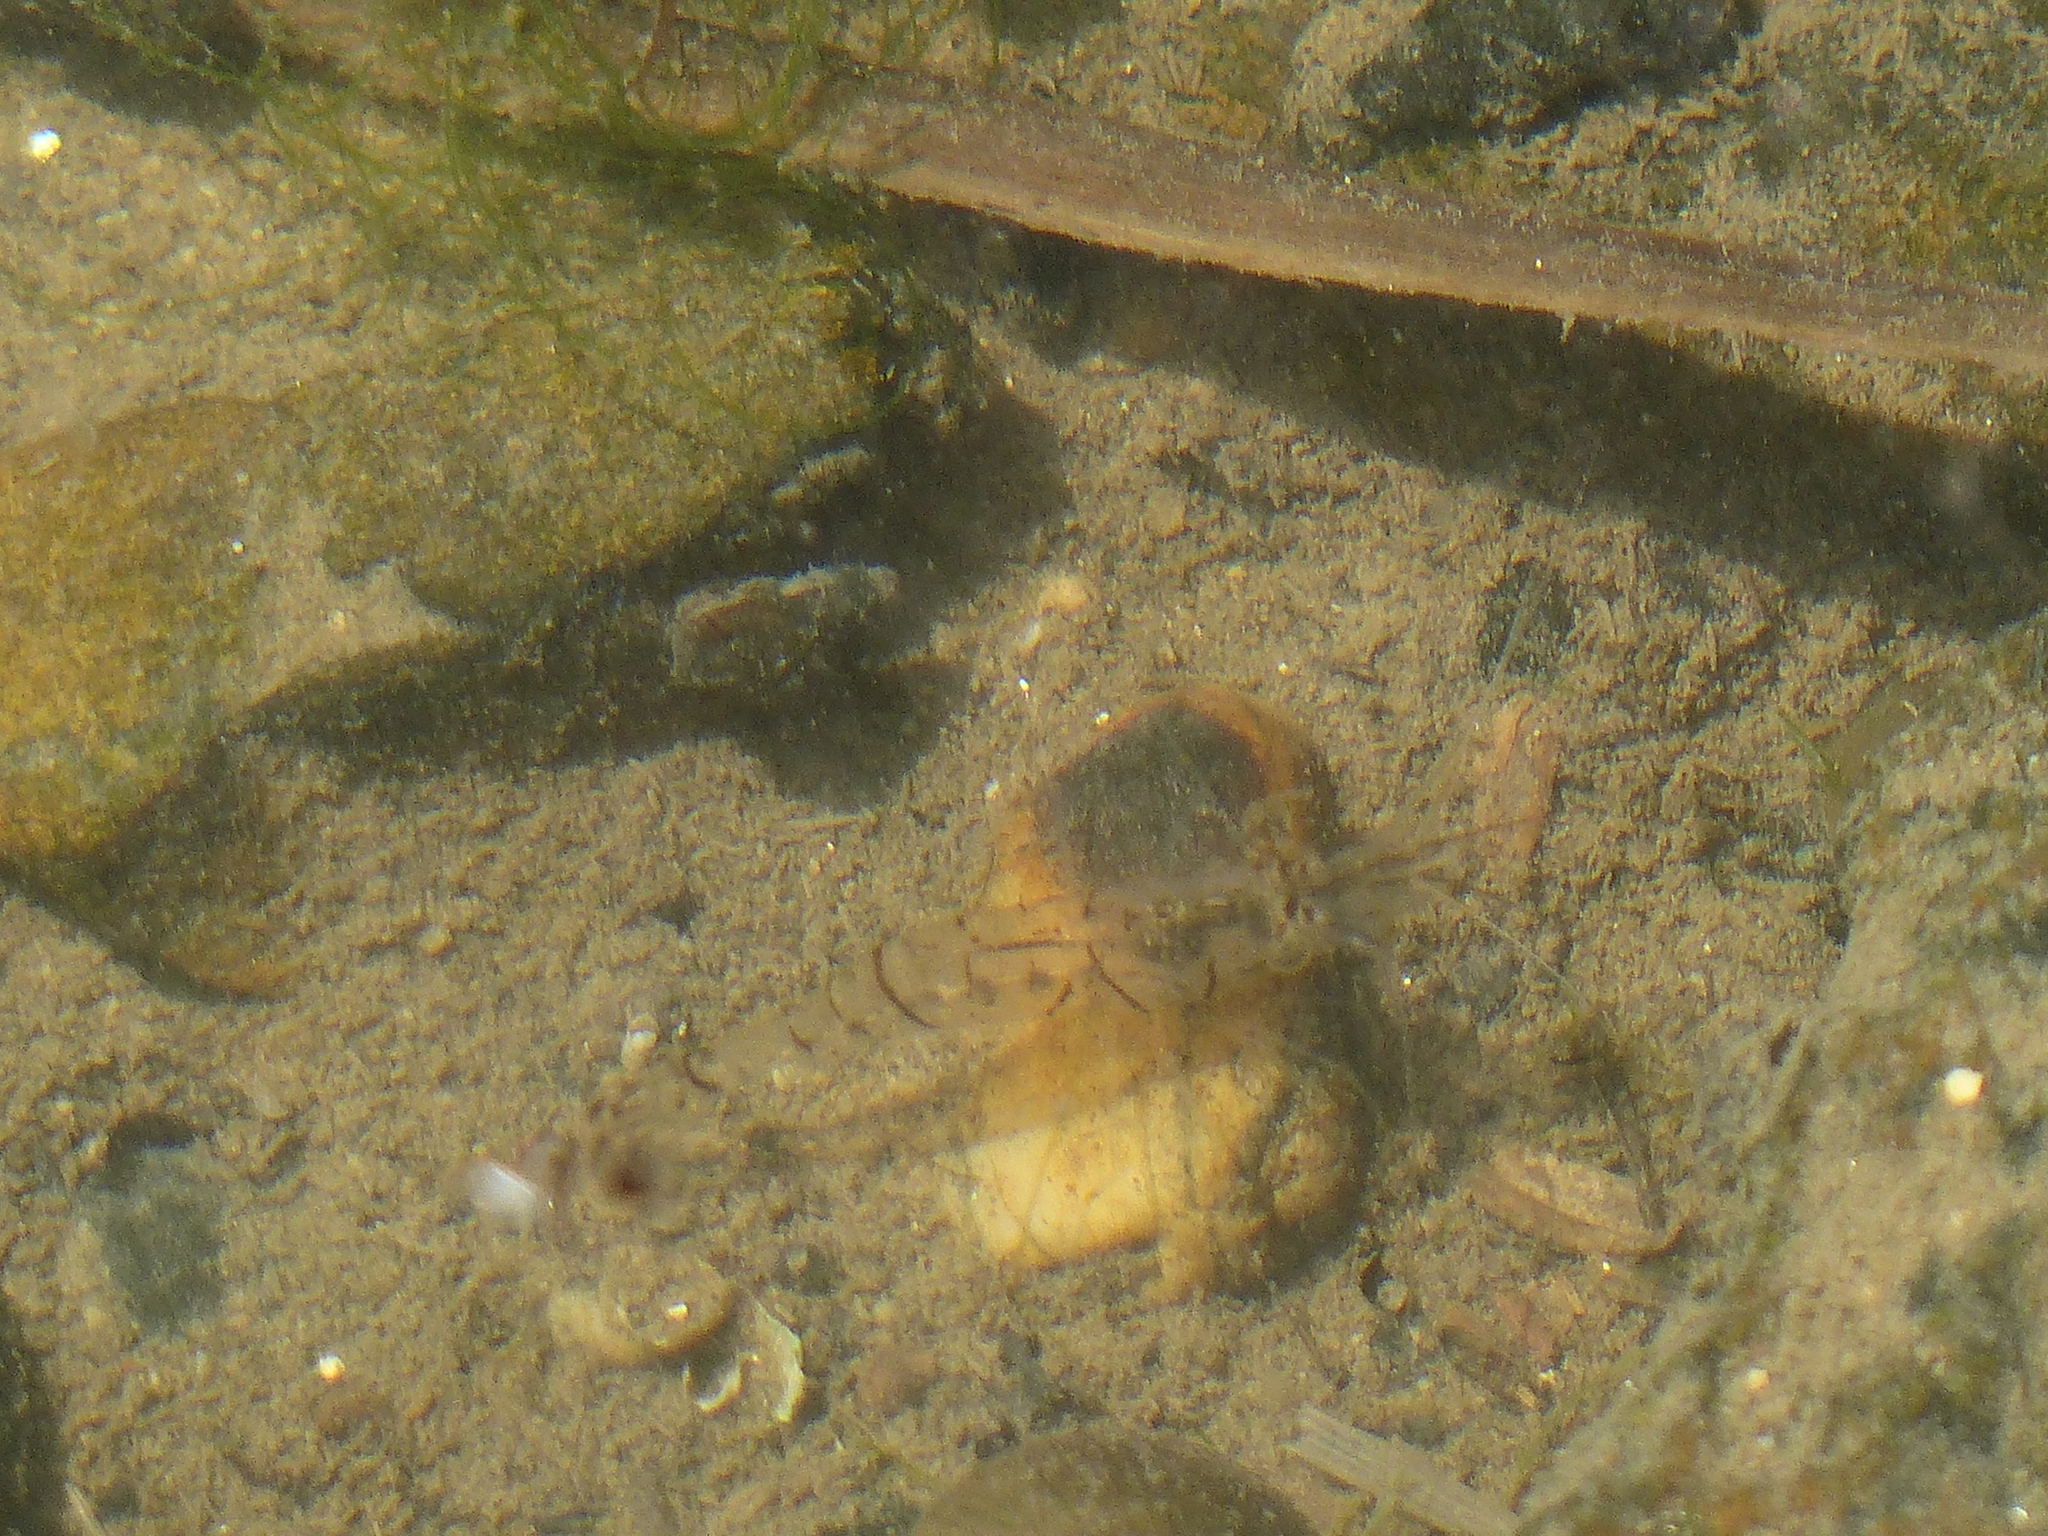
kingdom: Animalia
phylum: Arthropoda
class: Malacostraca
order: Decapoda
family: Palaemonidae
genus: Palaemon
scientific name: Palaemon paucidens
